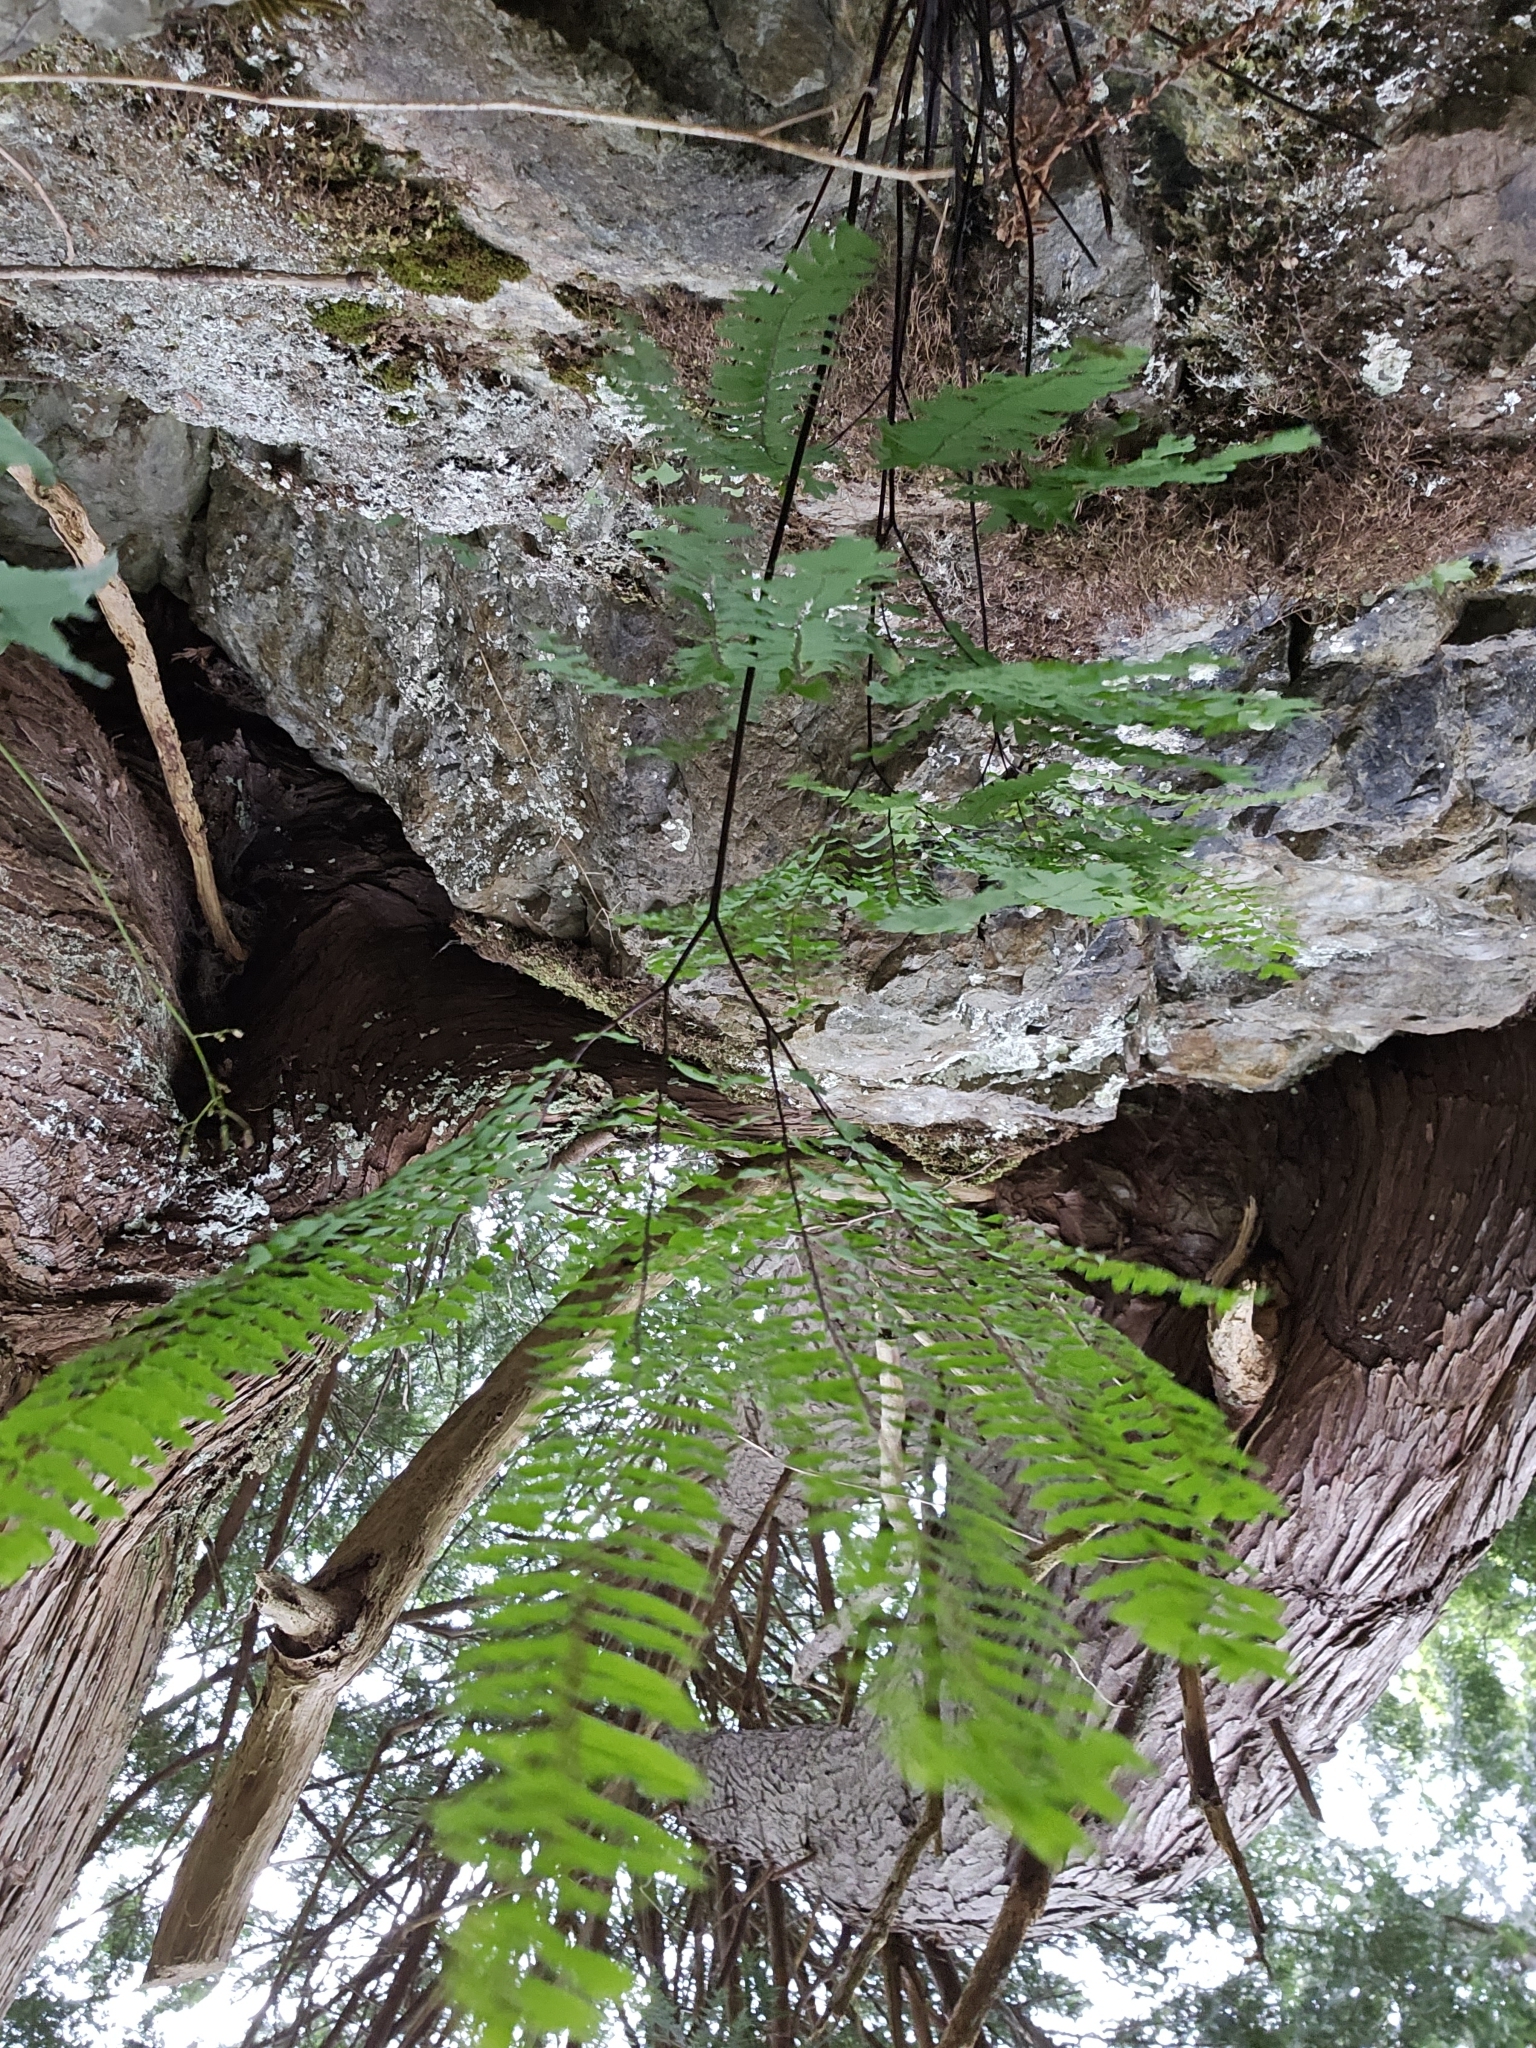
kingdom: Plantae
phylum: Tracheophyta
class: Polypodiopsida
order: Polypodiales
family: Pteridaceae
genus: Adiantum
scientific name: Adiantum aleuticum
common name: Aleutian maidenhair fern
